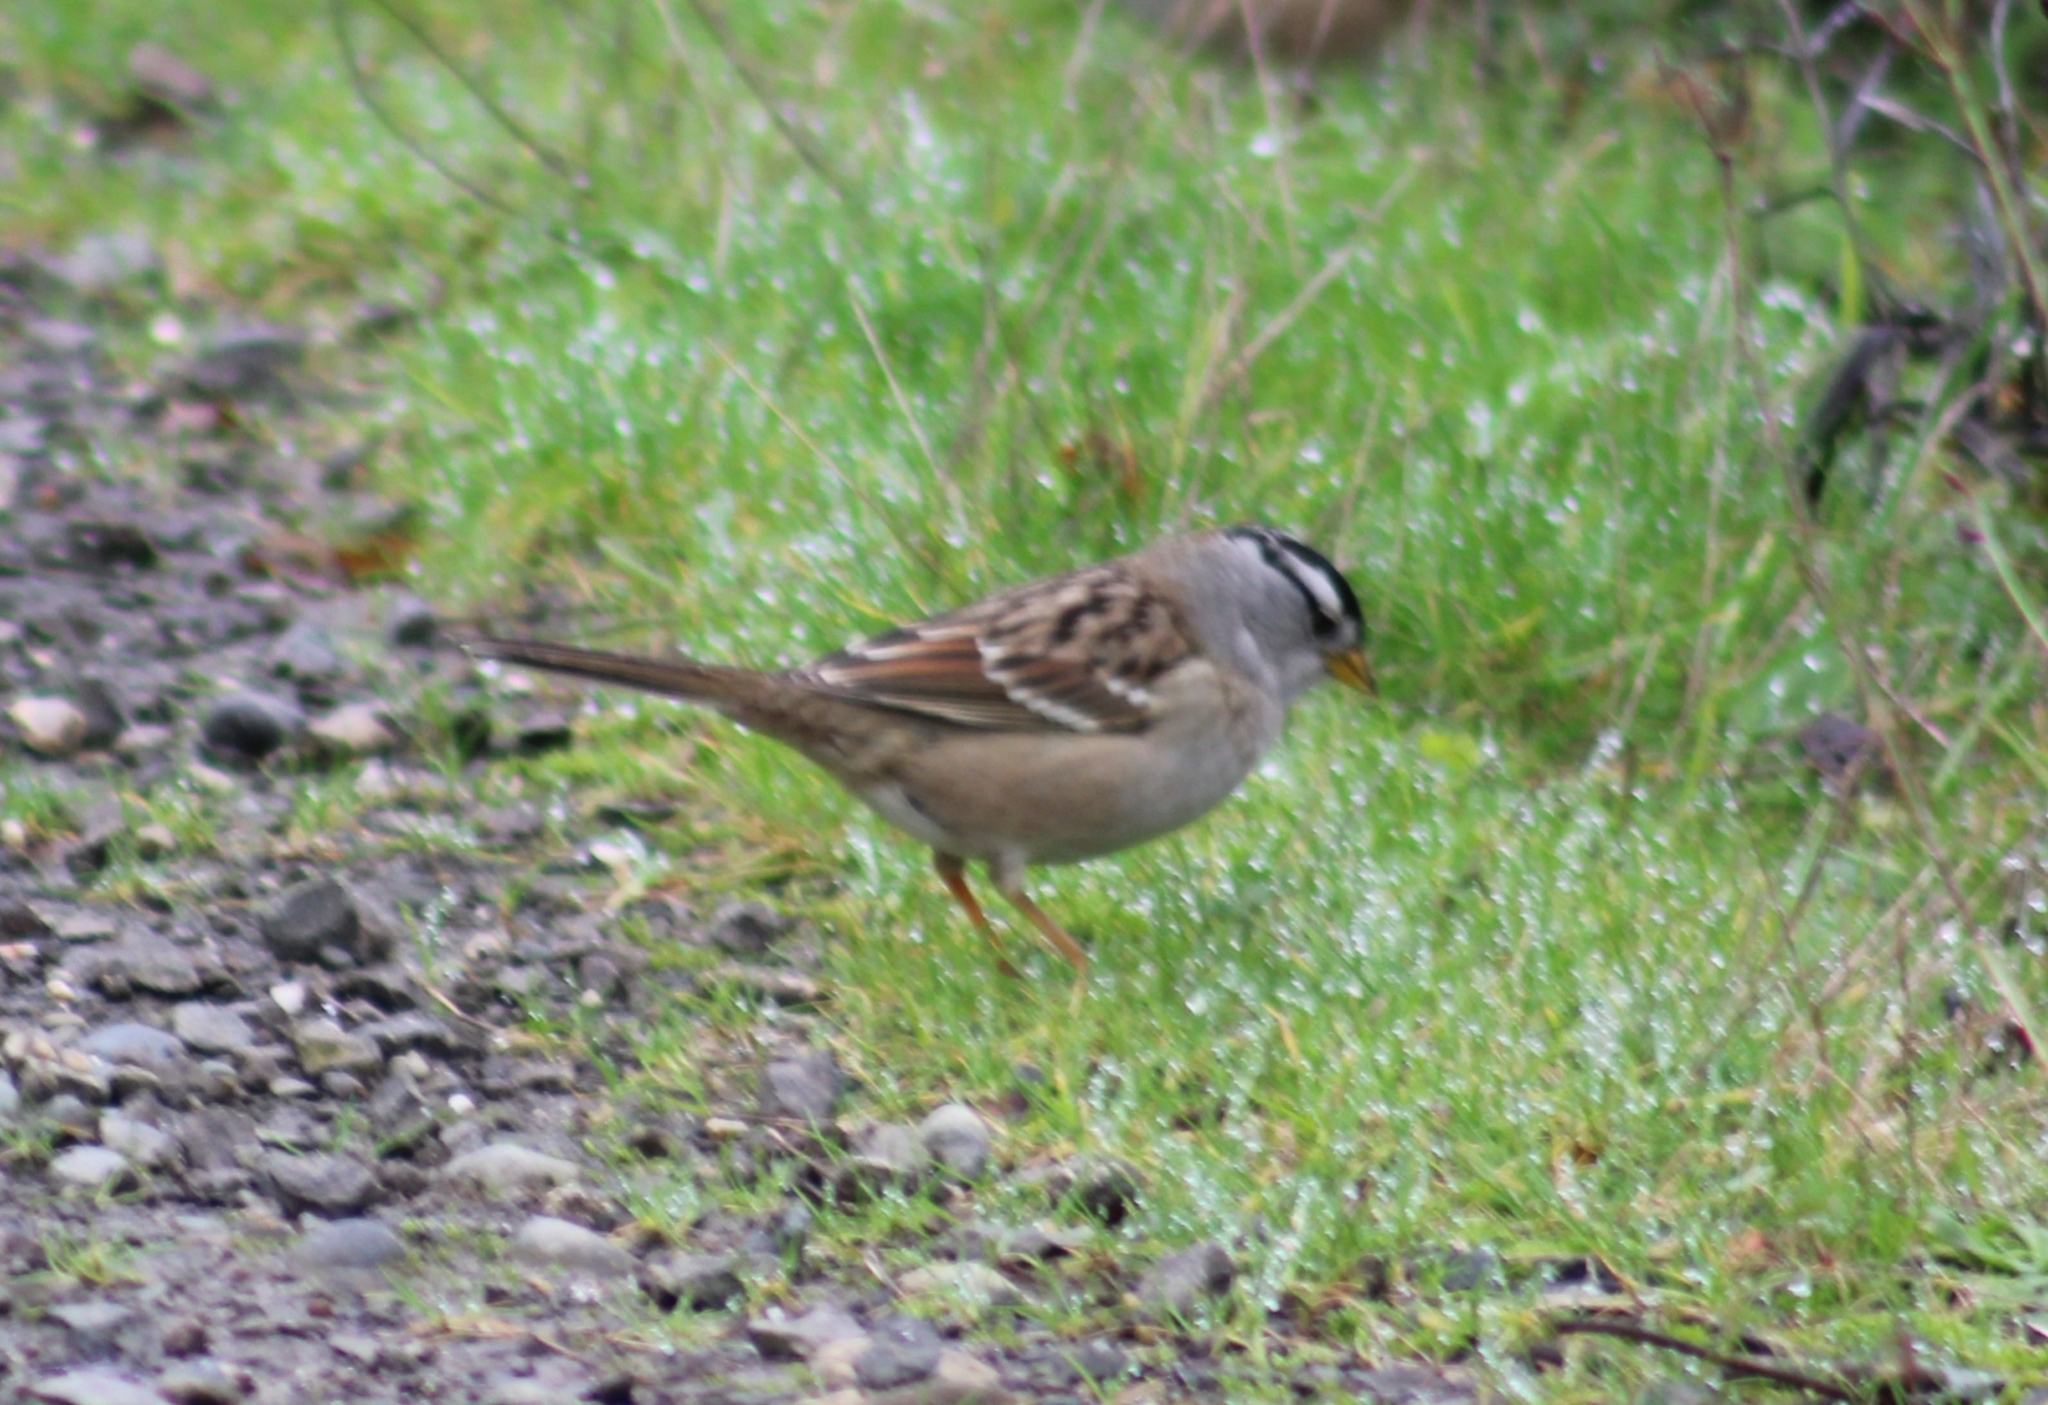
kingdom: Animalia
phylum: Chordata
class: Aves
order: Passeriformes
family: Passerellidae
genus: Zonotrichia
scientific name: Zonotrichia leucophrys
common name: White-crowned sparrow
